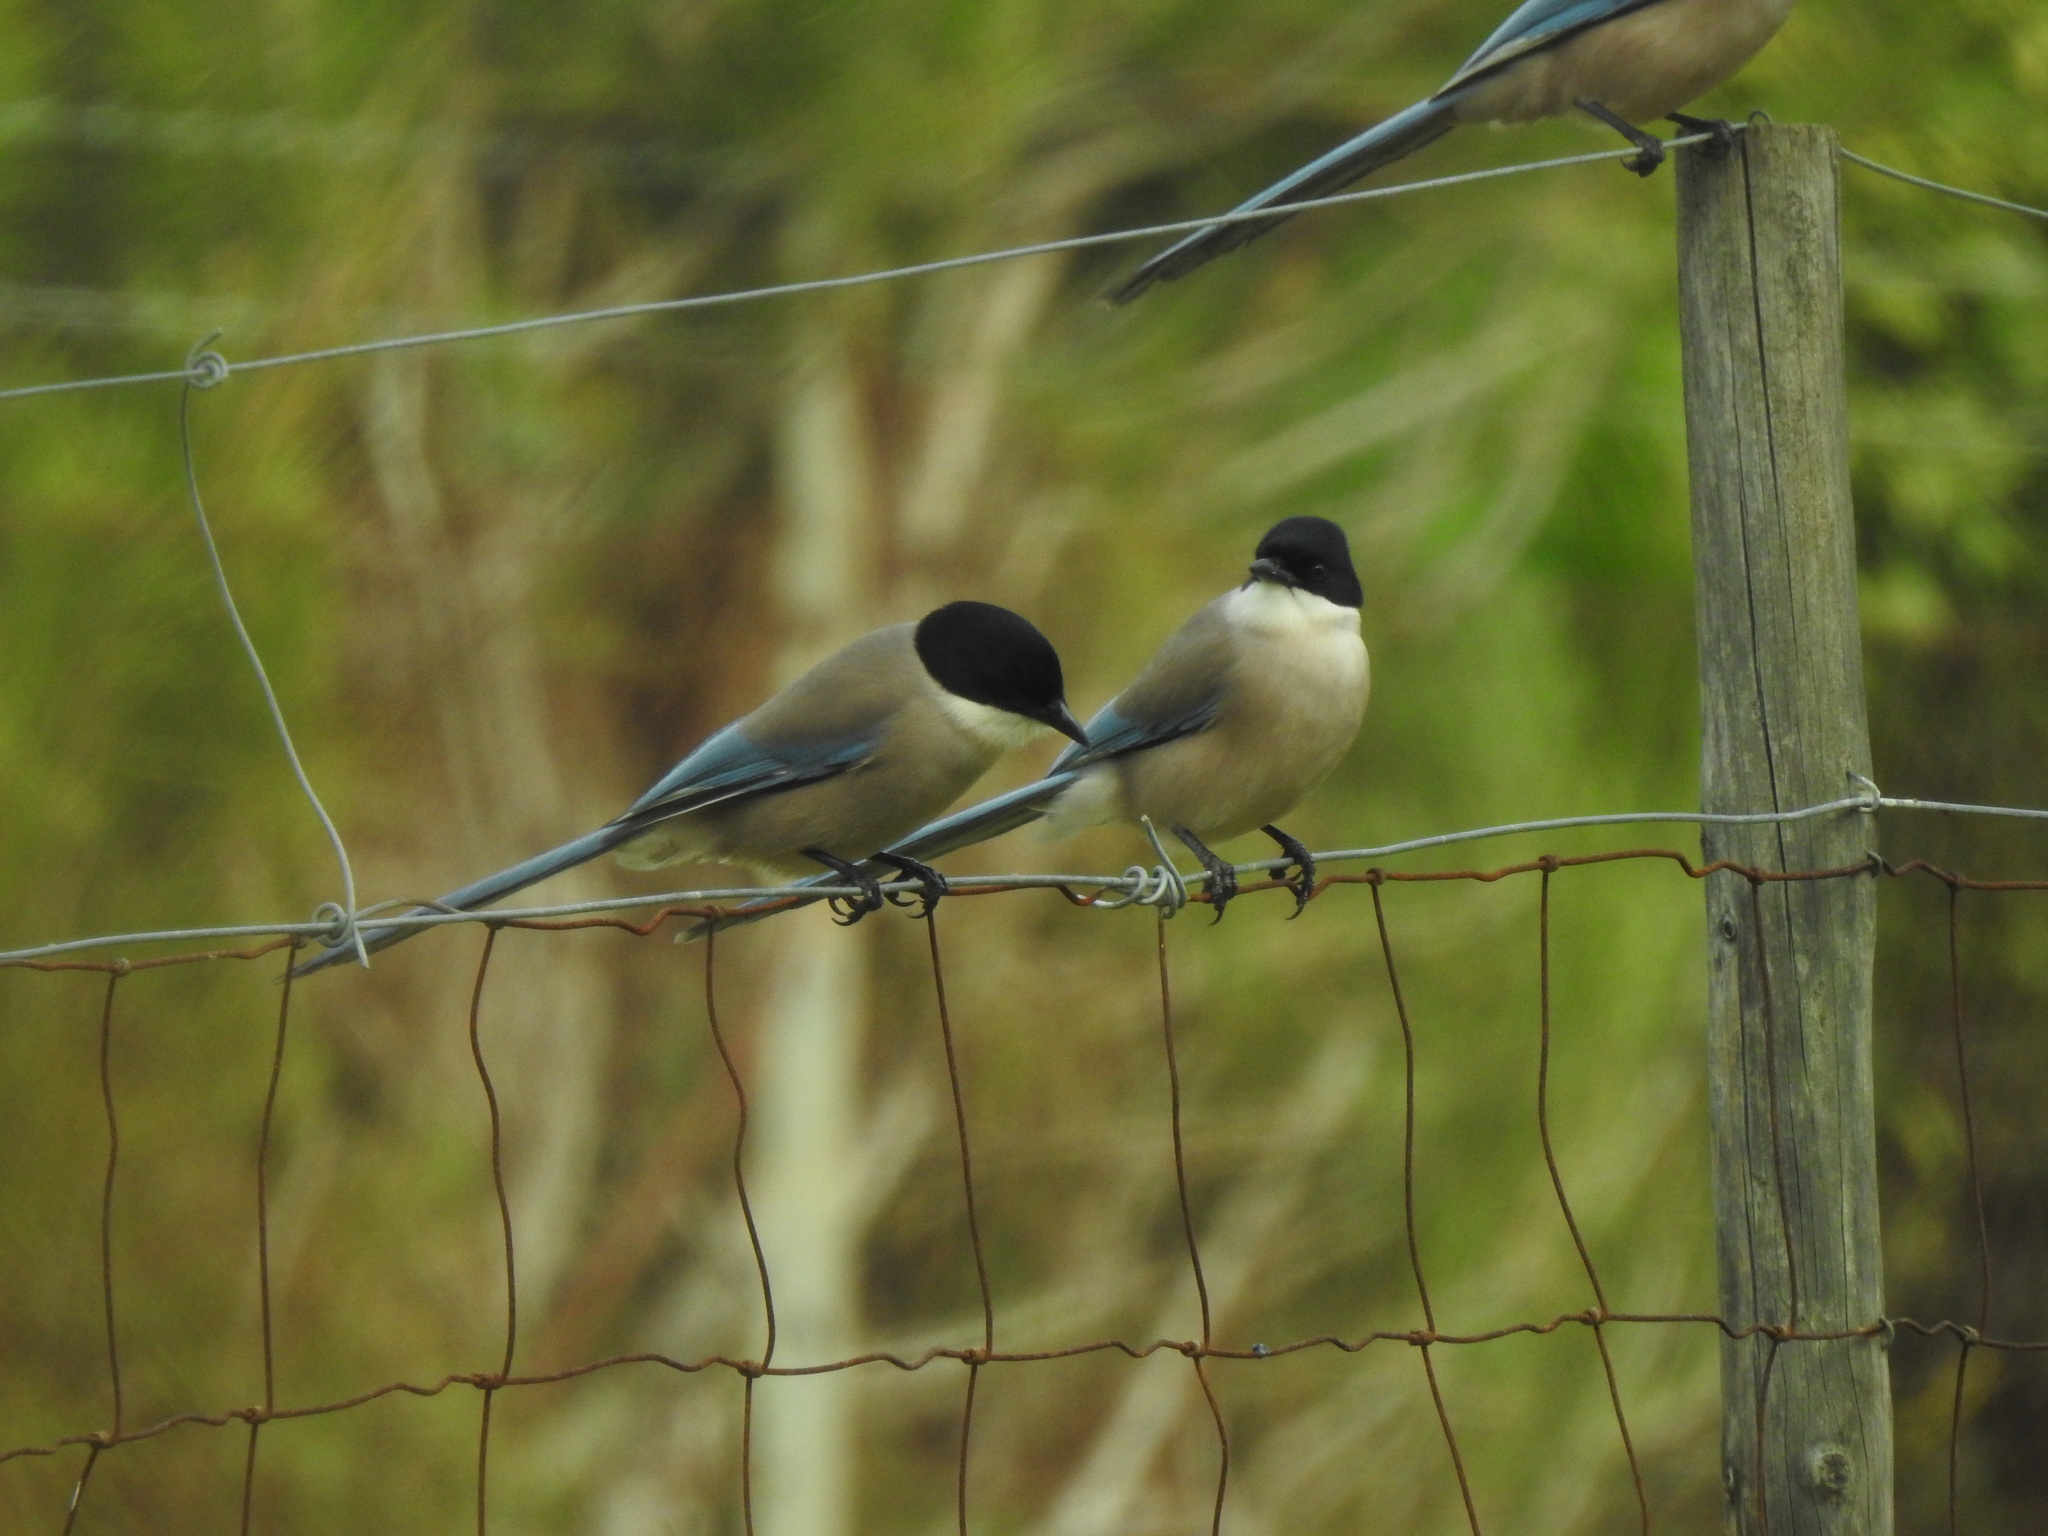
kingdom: Animalia
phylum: Chordata
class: Aves
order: Passeriformes
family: Corvidae
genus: Cyanopica
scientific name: Cyanopica cooki
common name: Iberian magpie
